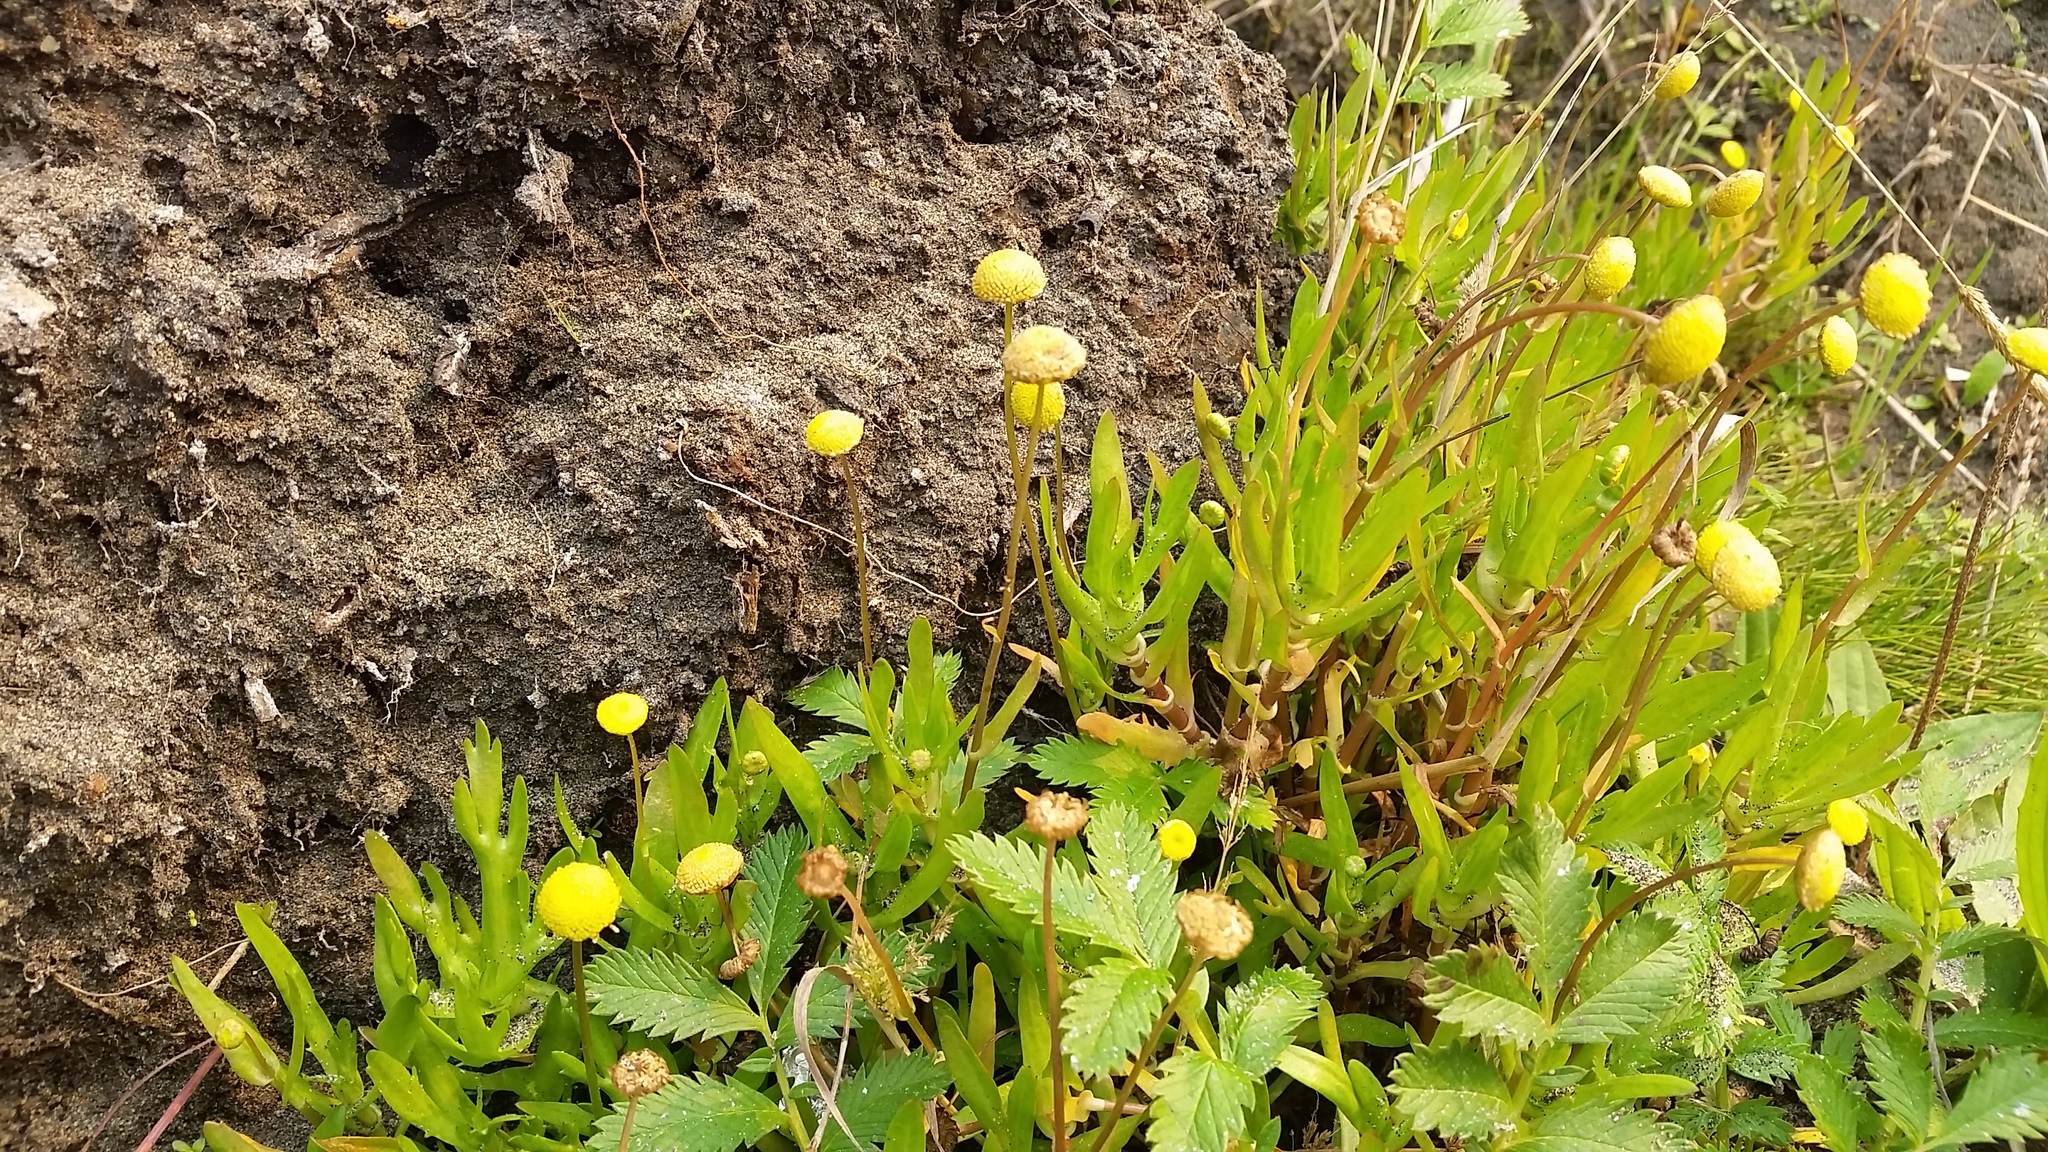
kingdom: Plantae
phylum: Tracheophyta
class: Magnoliopsida
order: Asterales
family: Asteraceae
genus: Cotula
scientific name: Cotula coronopifolia
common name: Buttonweed
